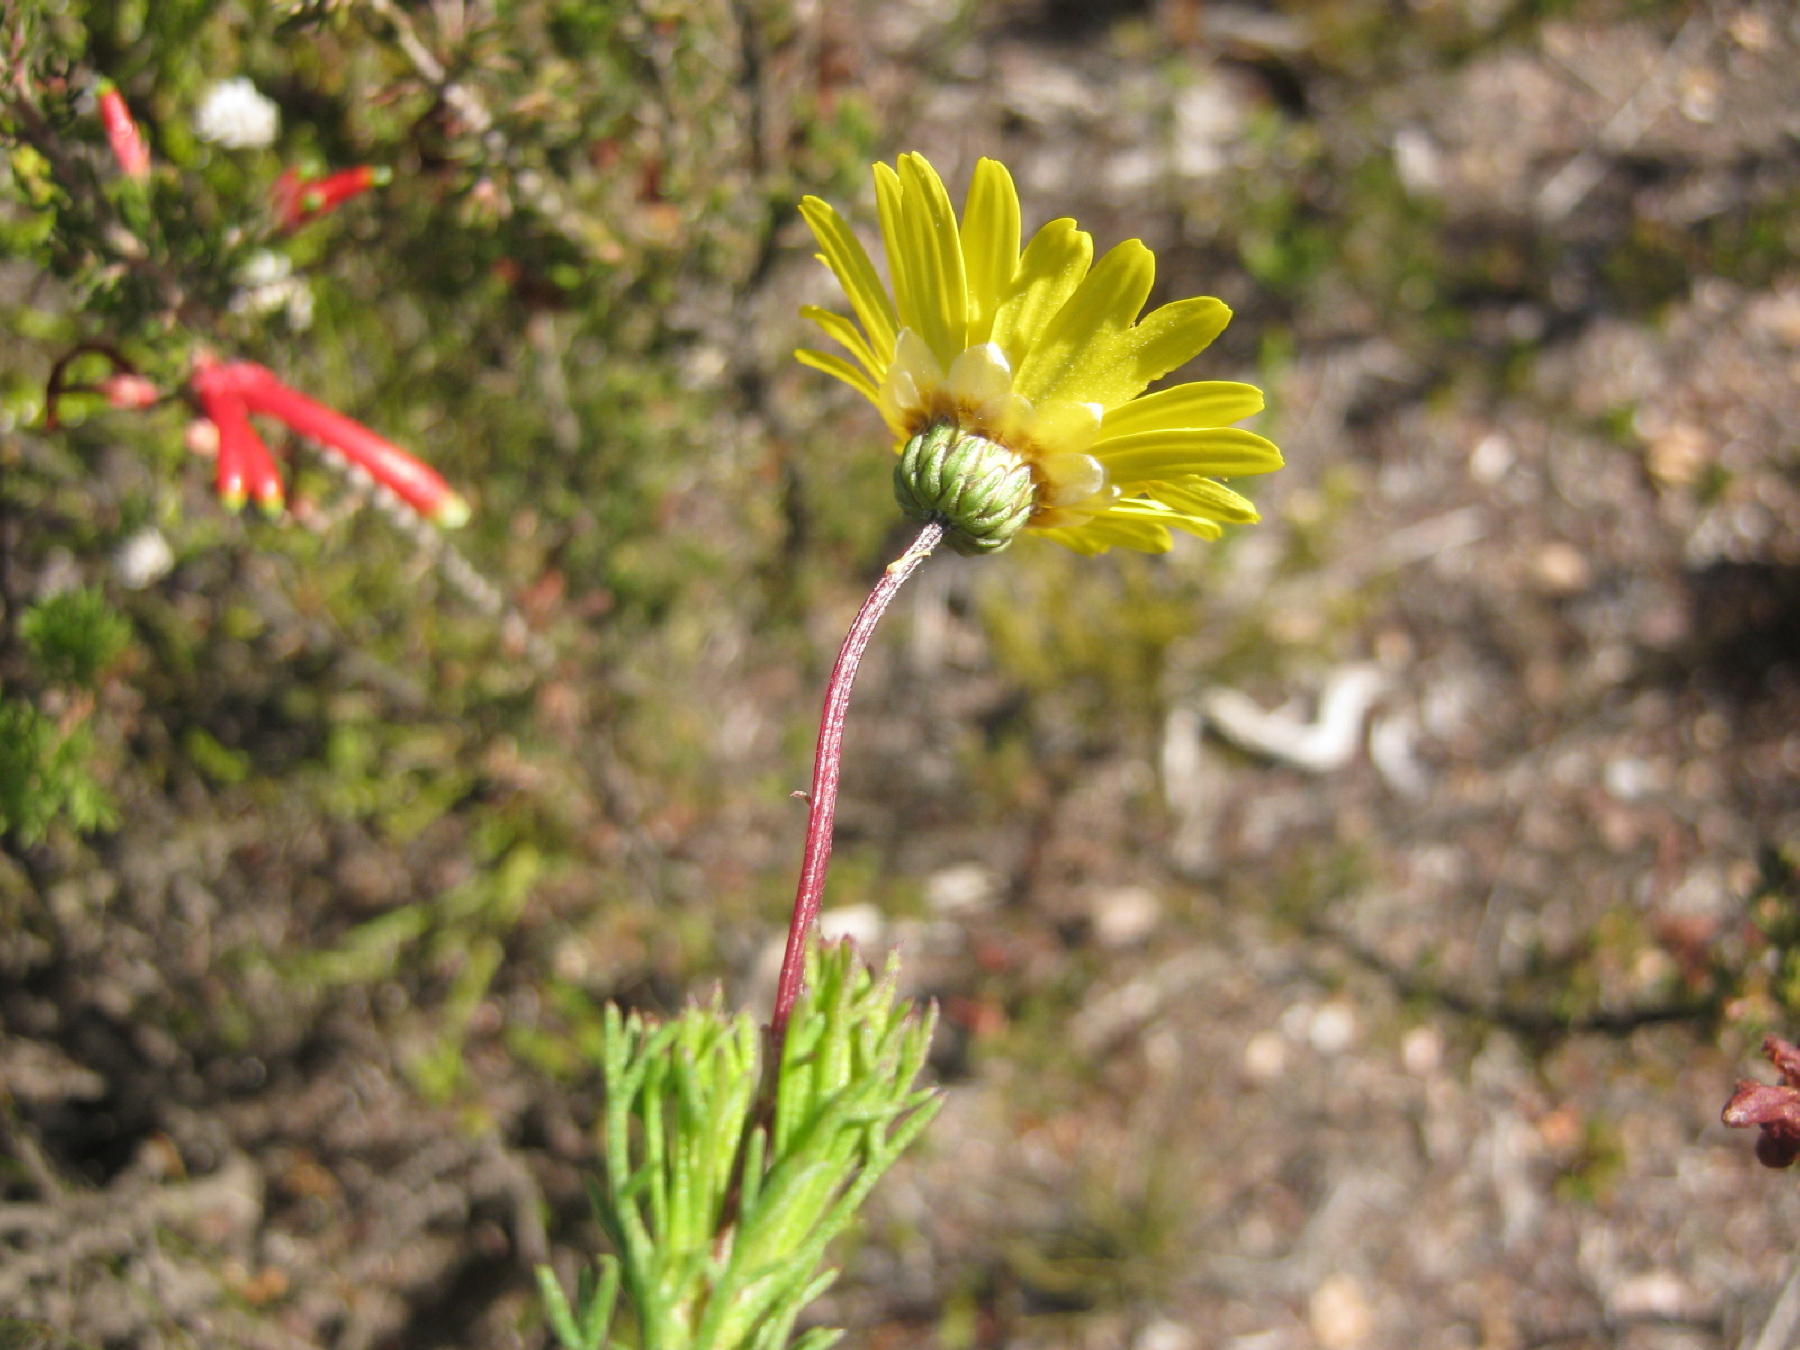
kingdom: Plantae
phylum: Tracheophyta
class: Magnoliopsida
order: Asterales
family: Asteraceae
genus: Ursinia
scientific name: Ursinia trifida
